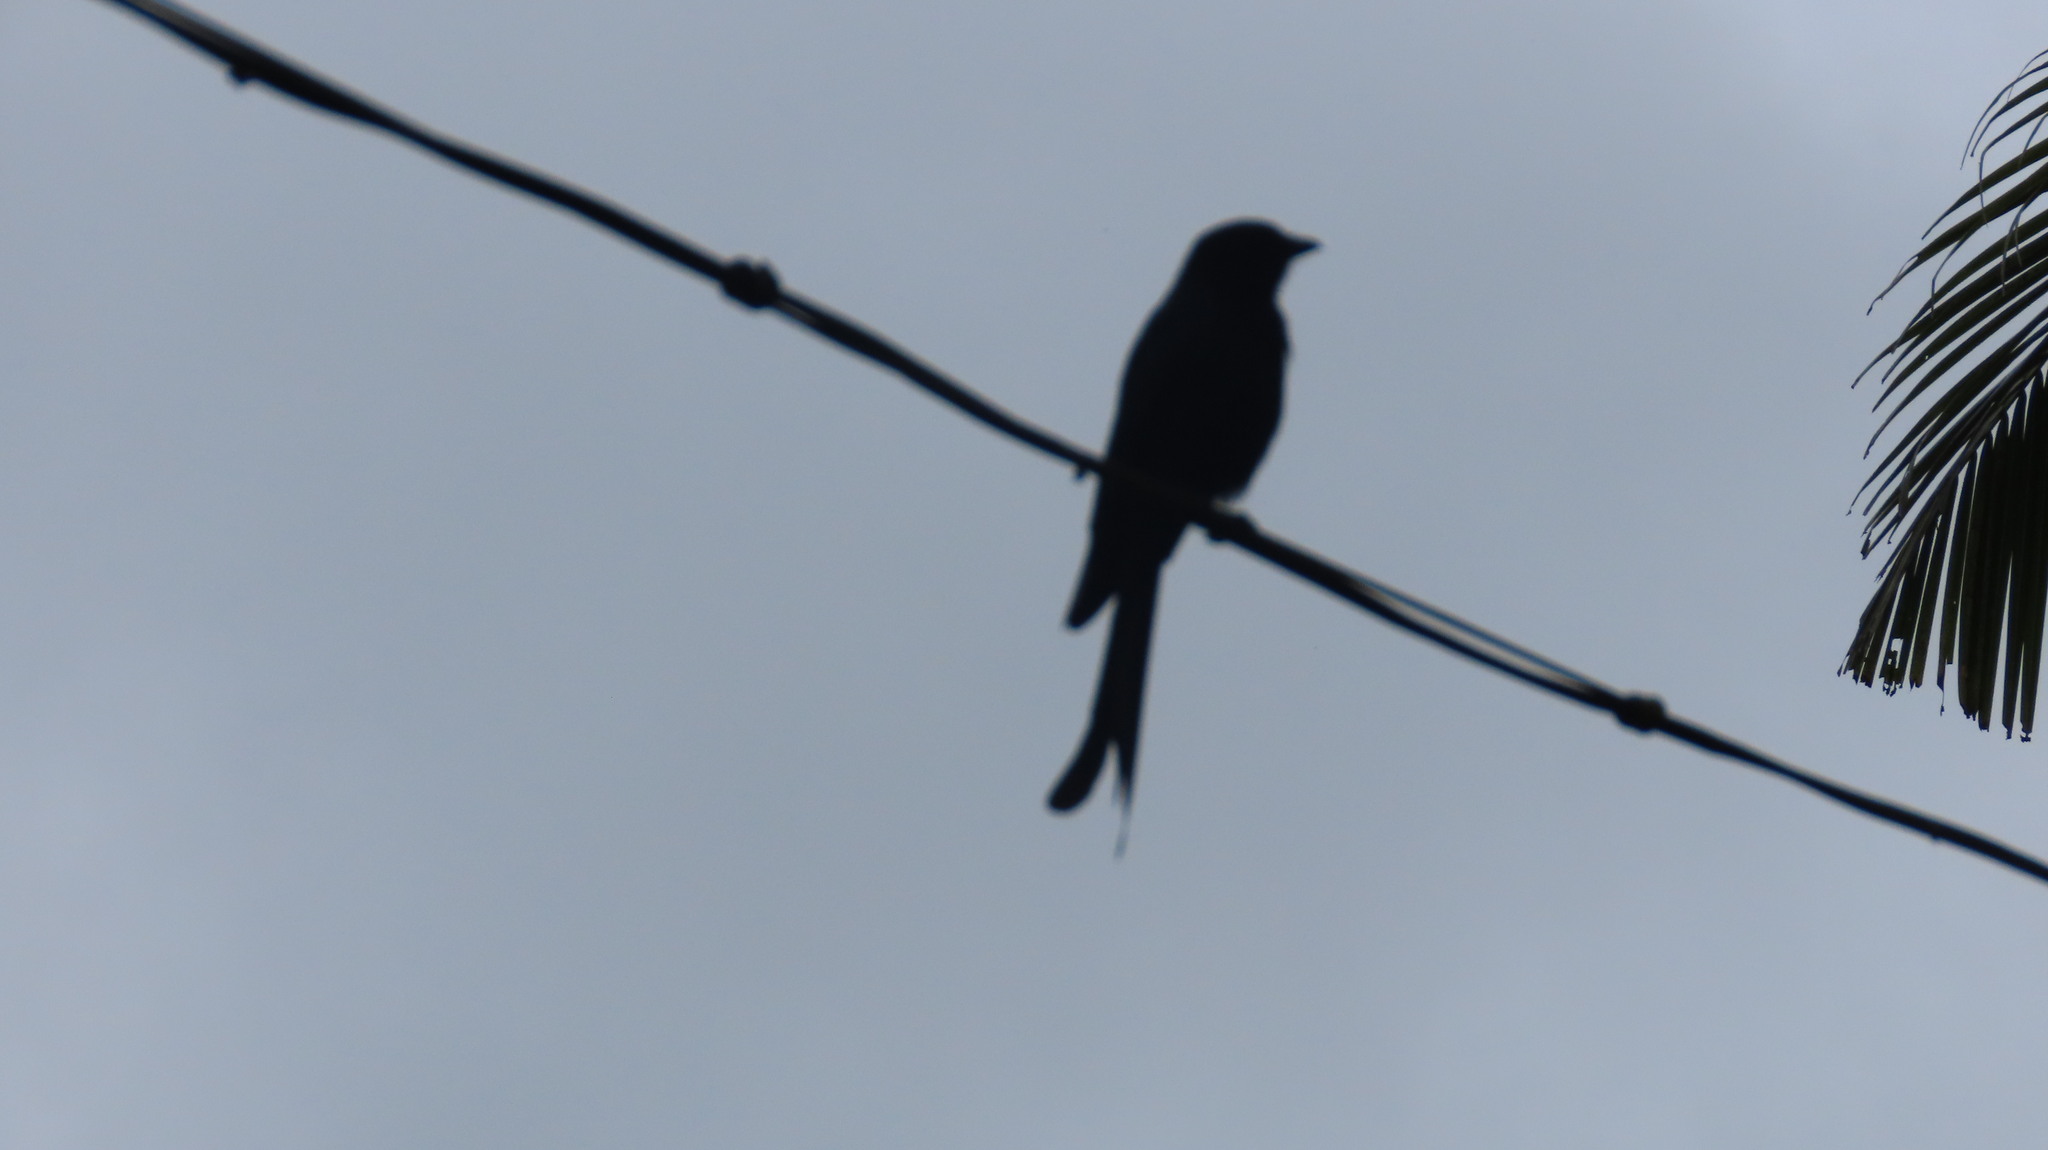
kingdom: Animalia
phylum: Chordata
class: Aves
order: Passeriformes
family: Dicruridae
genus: Dicrurus
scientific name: Dicrurus macrocercus
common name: Black drongo
